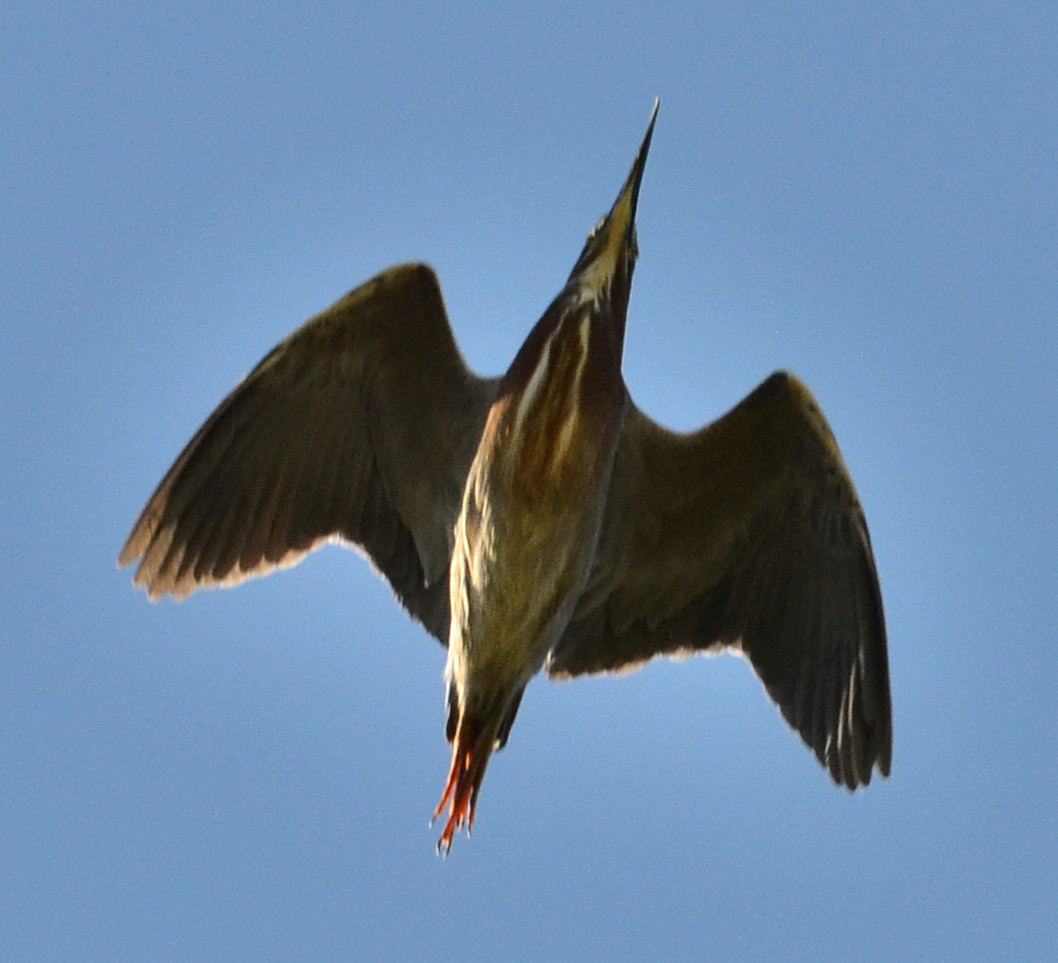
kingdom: Animalia
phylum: Chordata
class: Aves
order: Pelecaniformes
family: Ardeidae
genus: Butorides
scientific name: Butorides virescens
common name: Green heron
